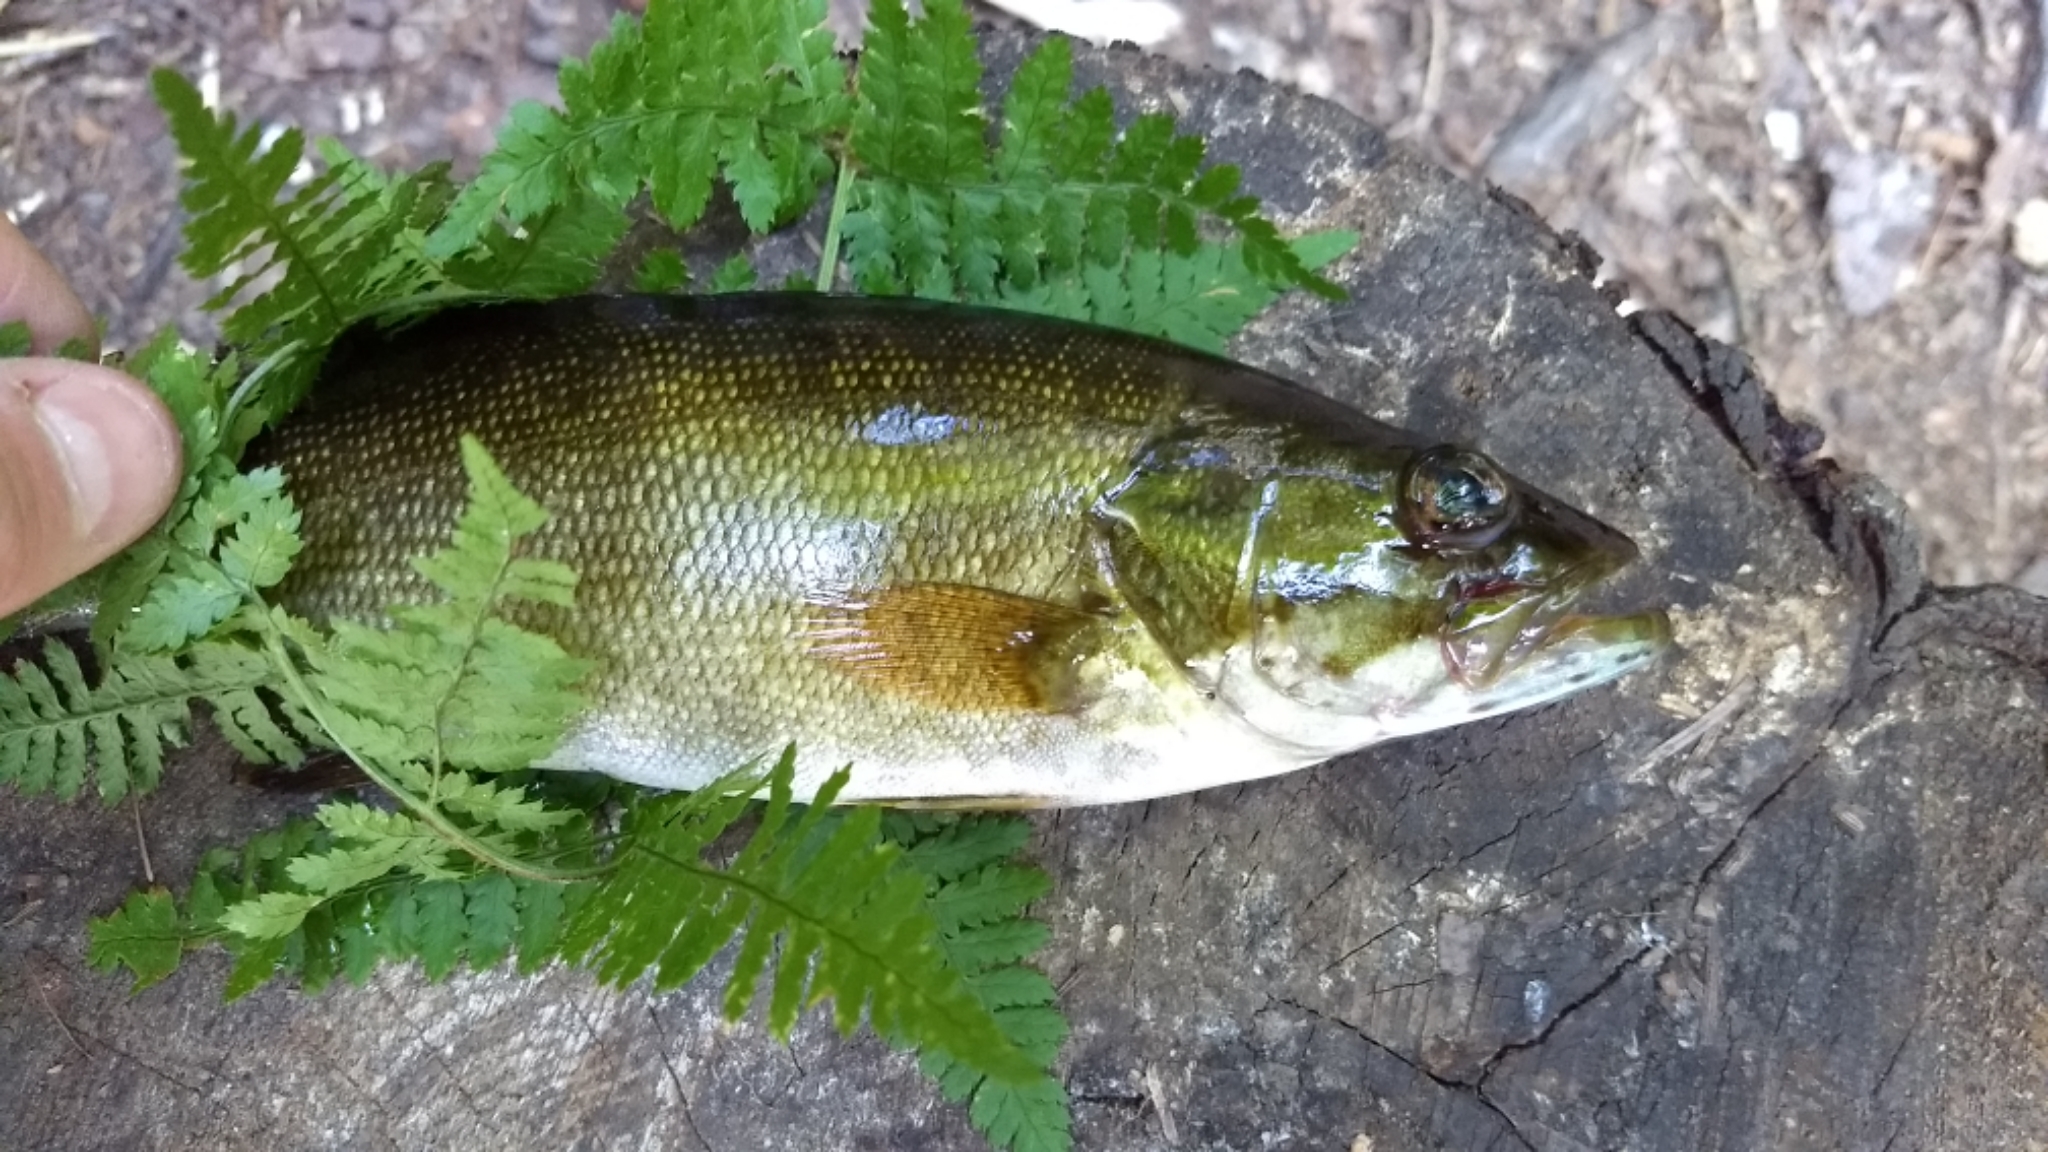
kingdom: Animalia
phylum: Chordata
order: Perciformes
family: Centrarchidae
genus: Micropterus
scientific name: Micropterus dolomieu
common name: Smallmouth bass
